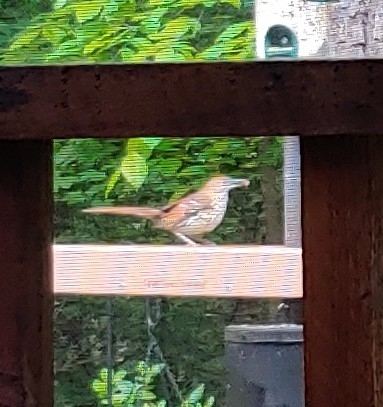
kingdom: Animalia
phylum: Chordata
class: Aves
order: Passeriformes
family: Mimidae
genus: Toxostoma
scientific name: Toxostoma rufum
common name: Brown thrasher
